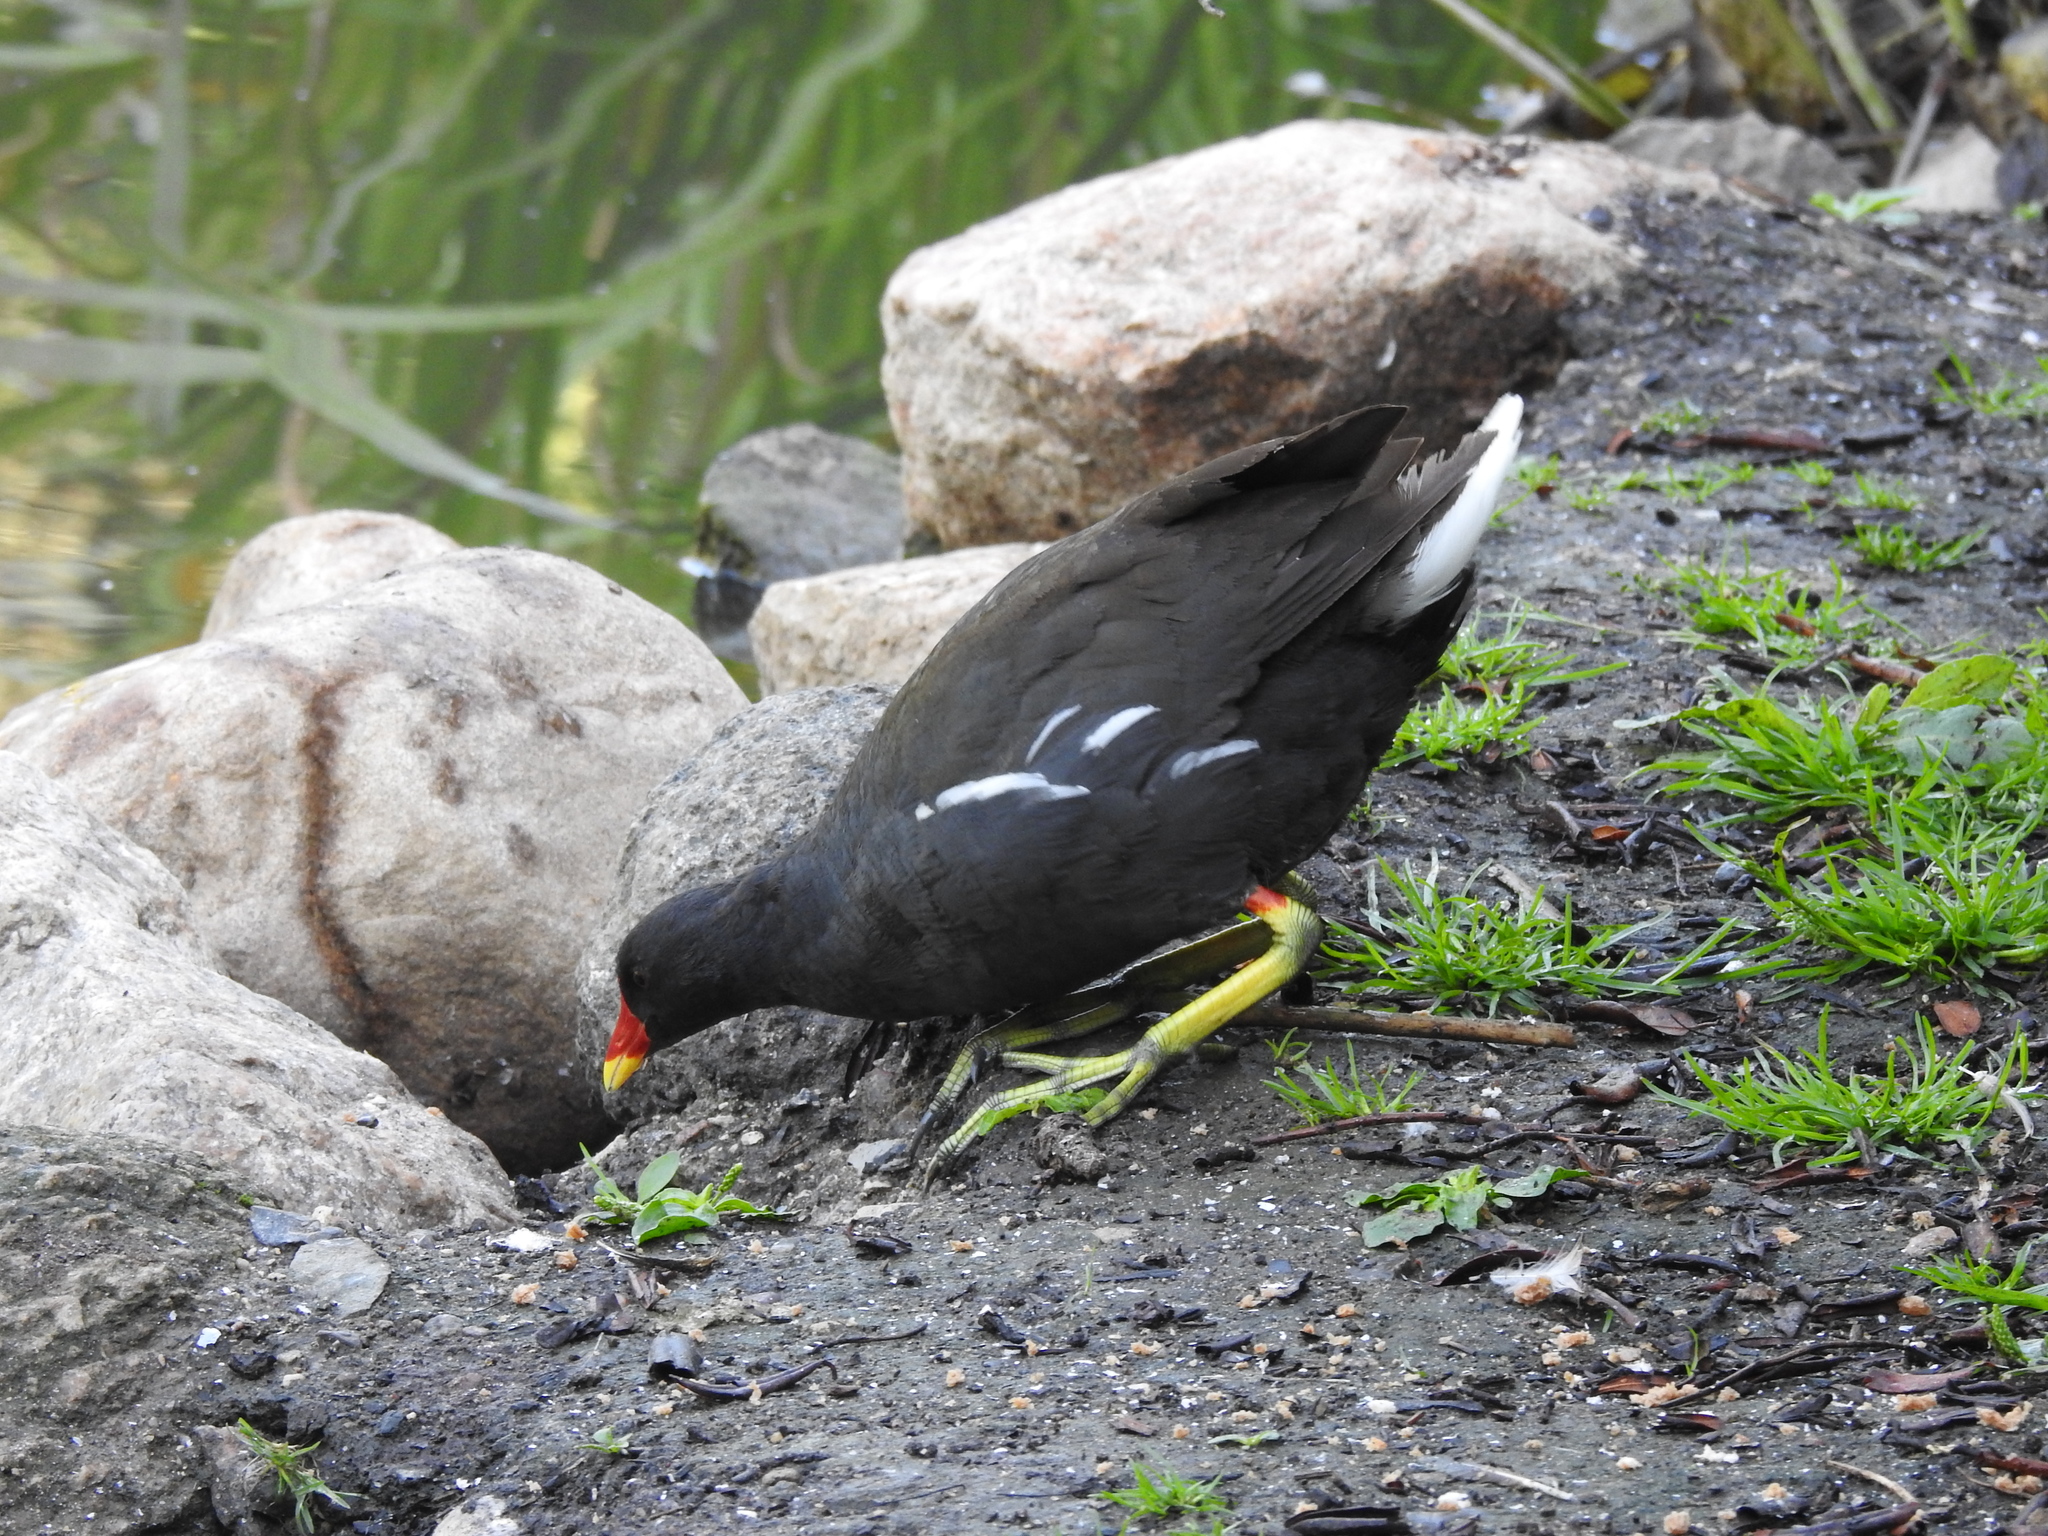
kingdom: Animalia
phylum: Chordata
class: Aves
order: Gruiformes
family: Rallidae
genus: Gallinula
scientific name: Gallinula chloropus
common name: Common moorhen
